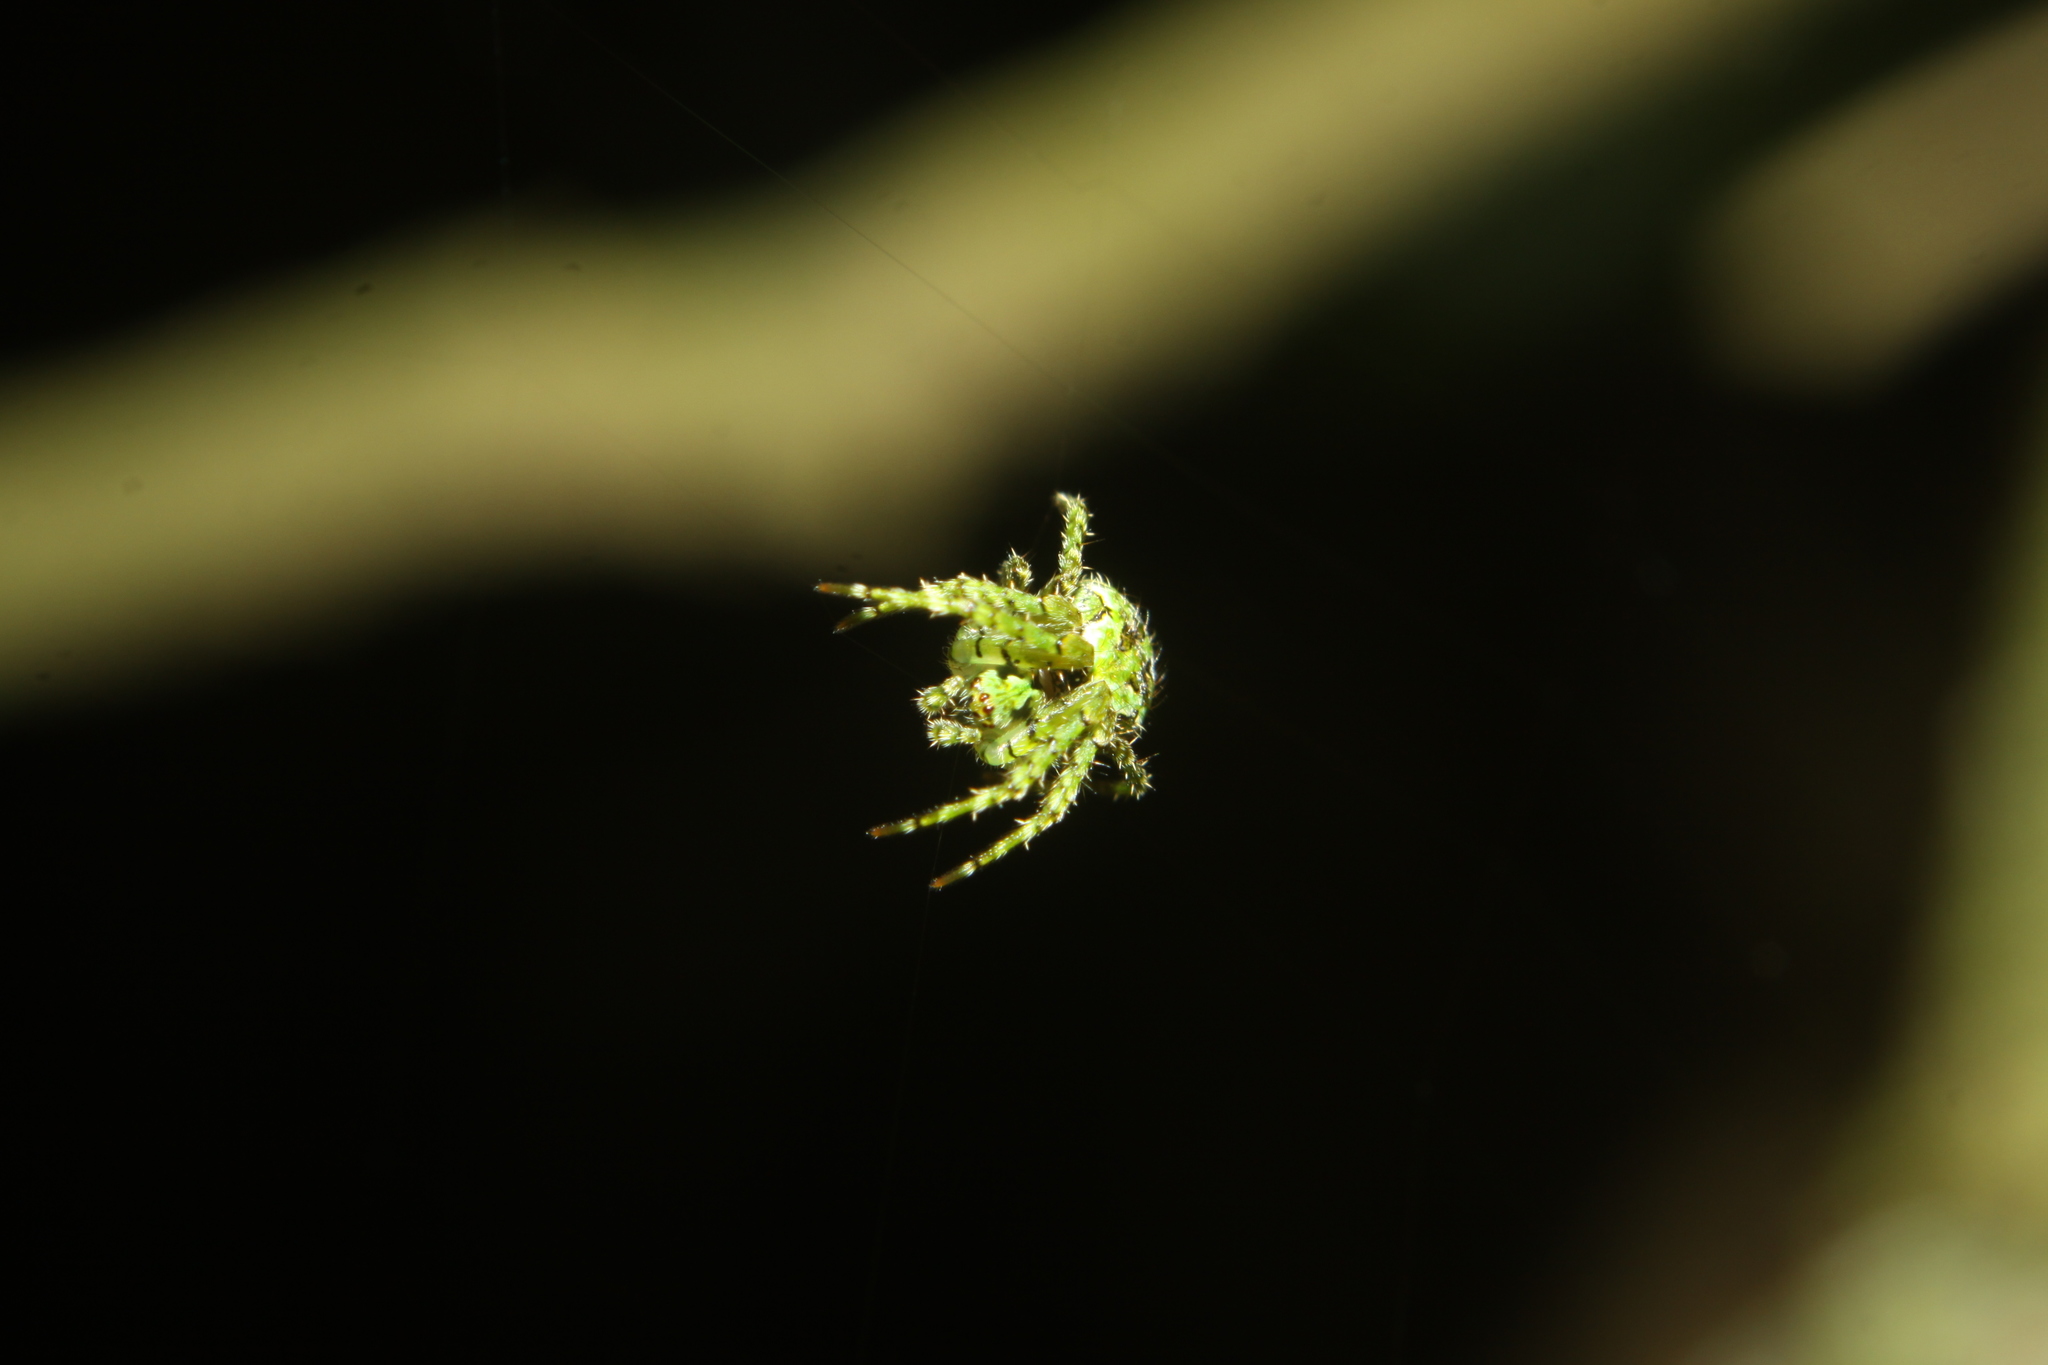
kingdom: Animalia
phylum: Arthropoda
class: Arachnida
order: Araneae
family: Araneidae
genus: Cryptaranea
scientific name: Cryptaranea atrihastula
